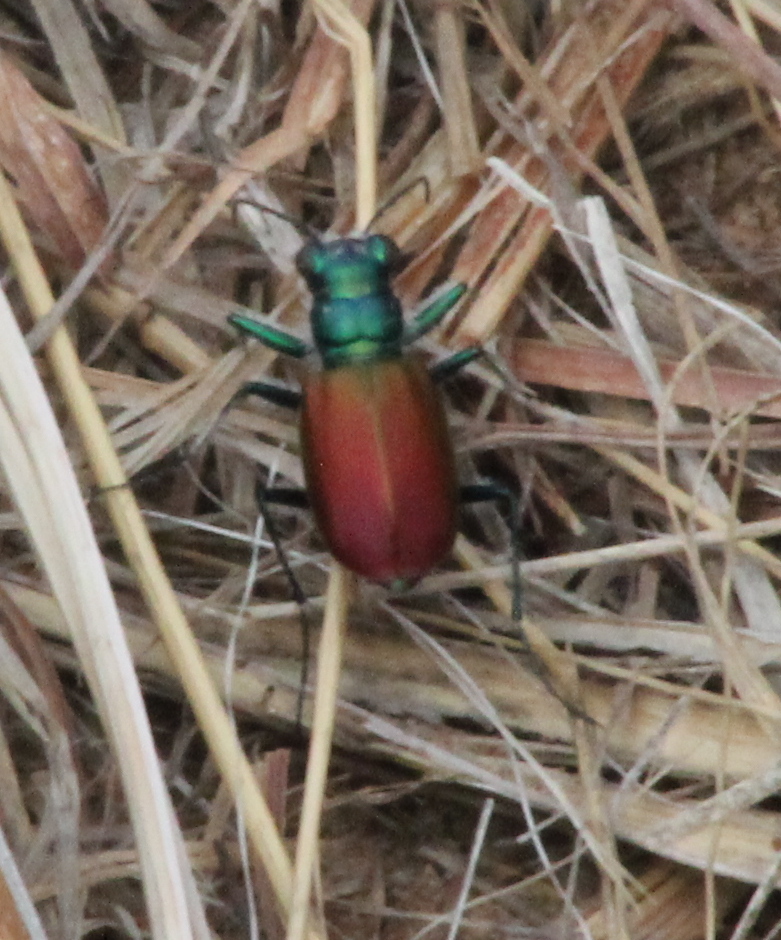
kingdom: Animalia
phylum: Arthropoda
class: Insecta
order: Coleoptera
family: Carabidae
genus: Cicindela
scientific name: Cicindela scutellaris
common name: Festive tiger beetle
